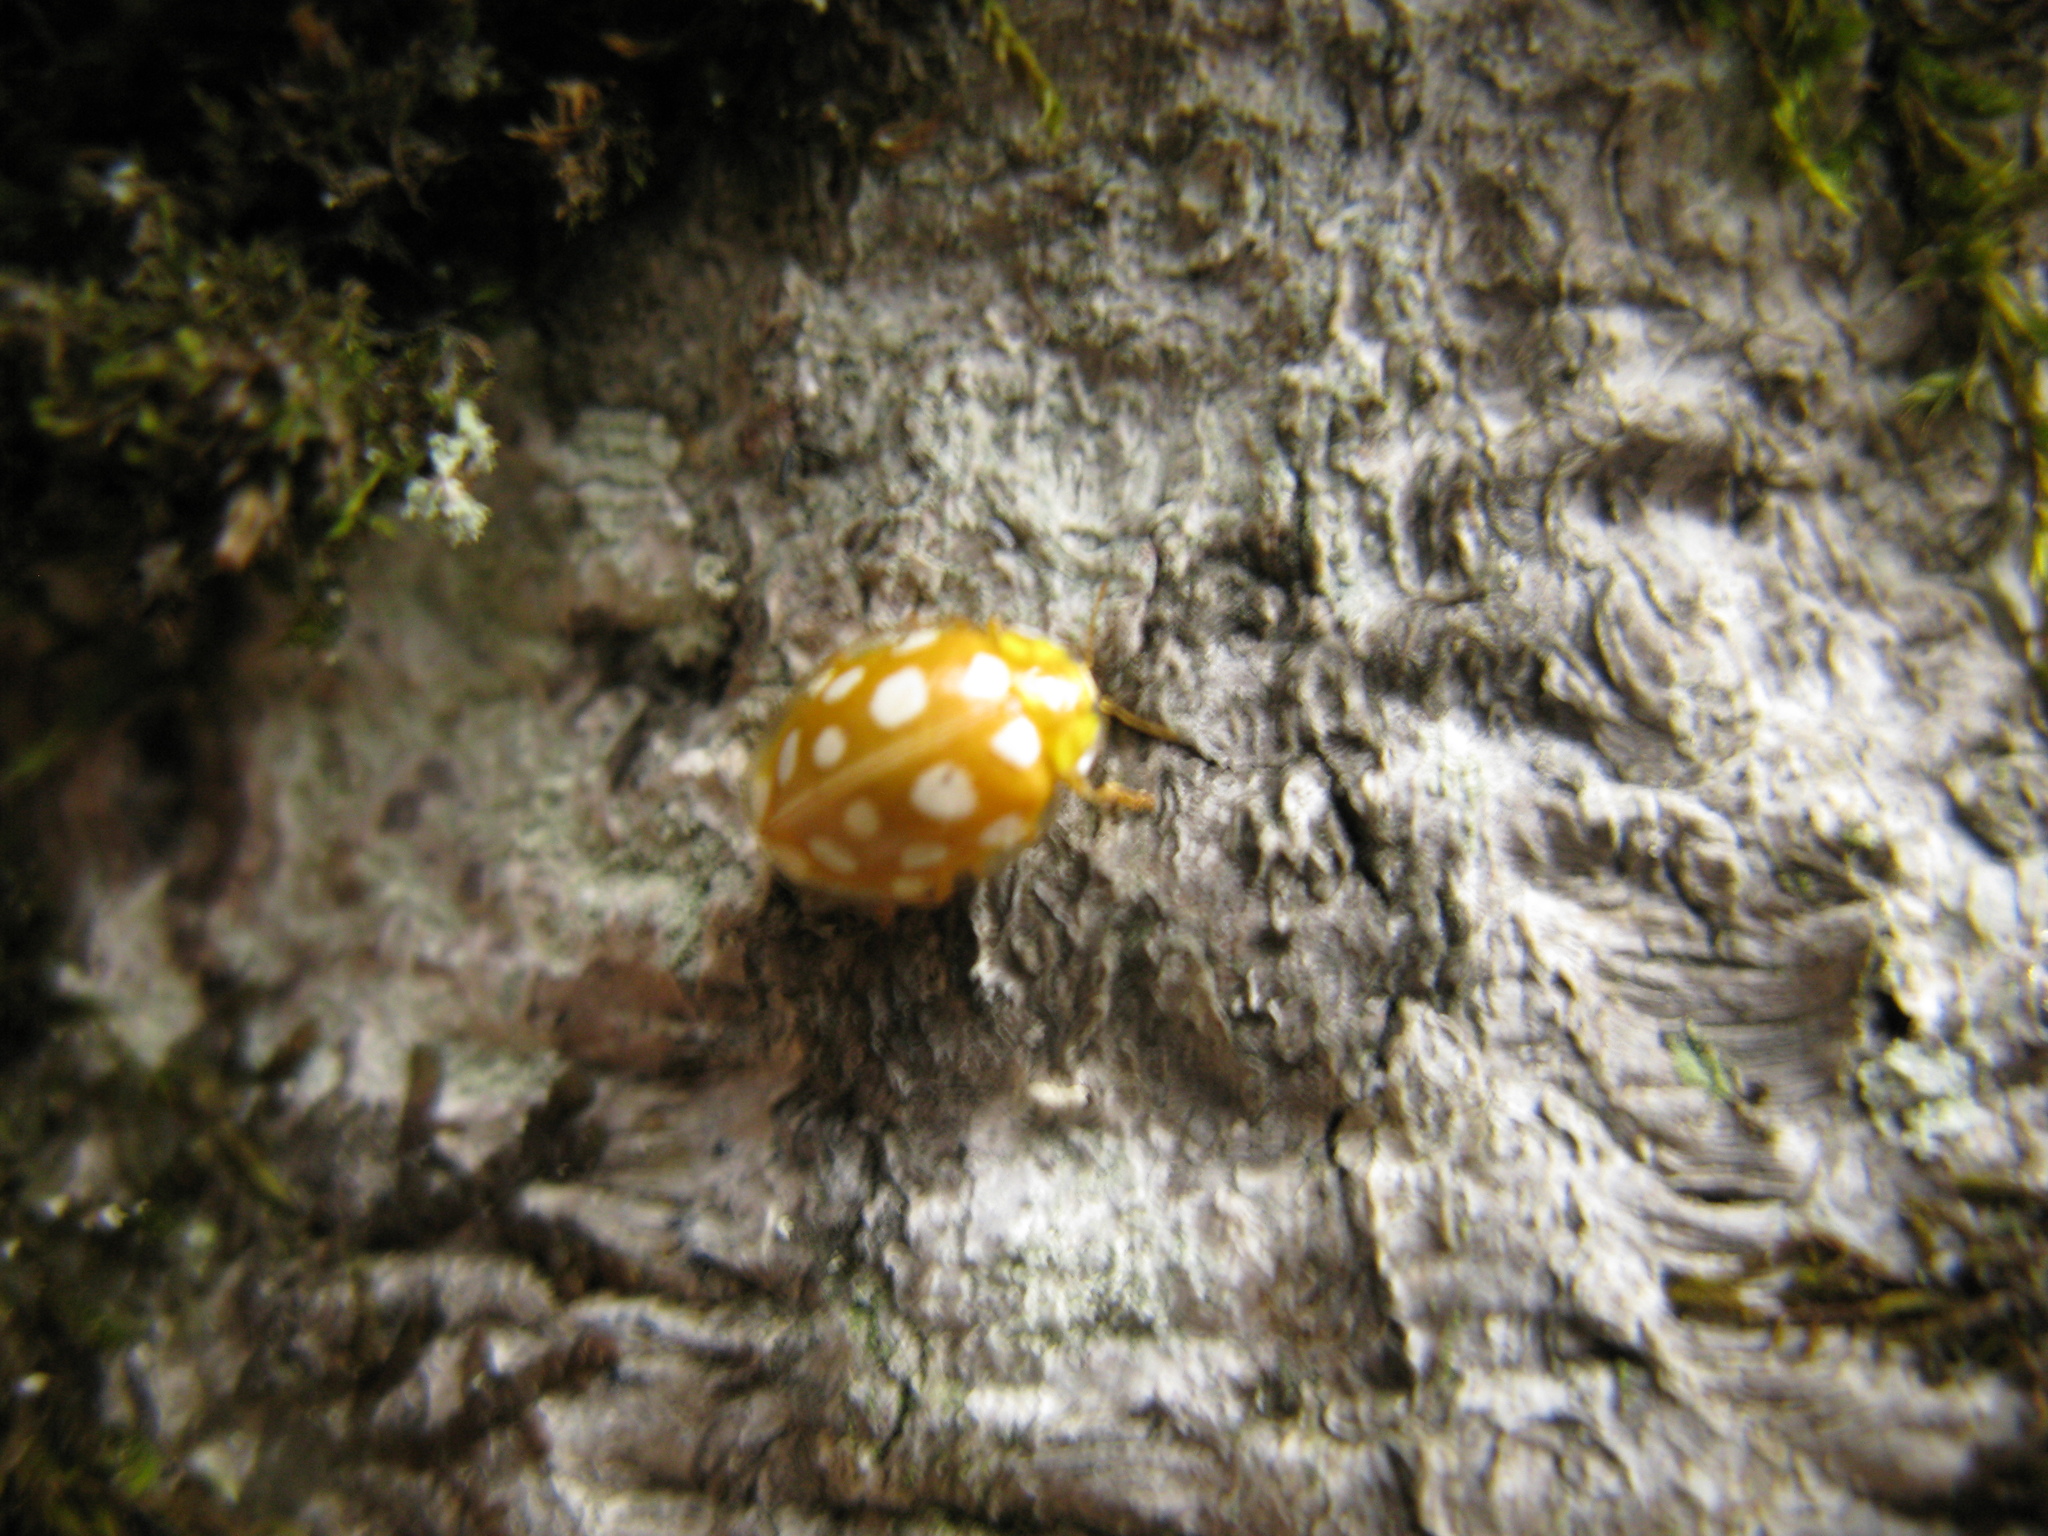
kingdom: Animalia
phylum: Arthropoda
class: Insecta
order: Coleoptera
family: Coccinellidae
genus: Halyzia
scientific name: Halyzia sedecimguttata
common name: Orange ladybird
